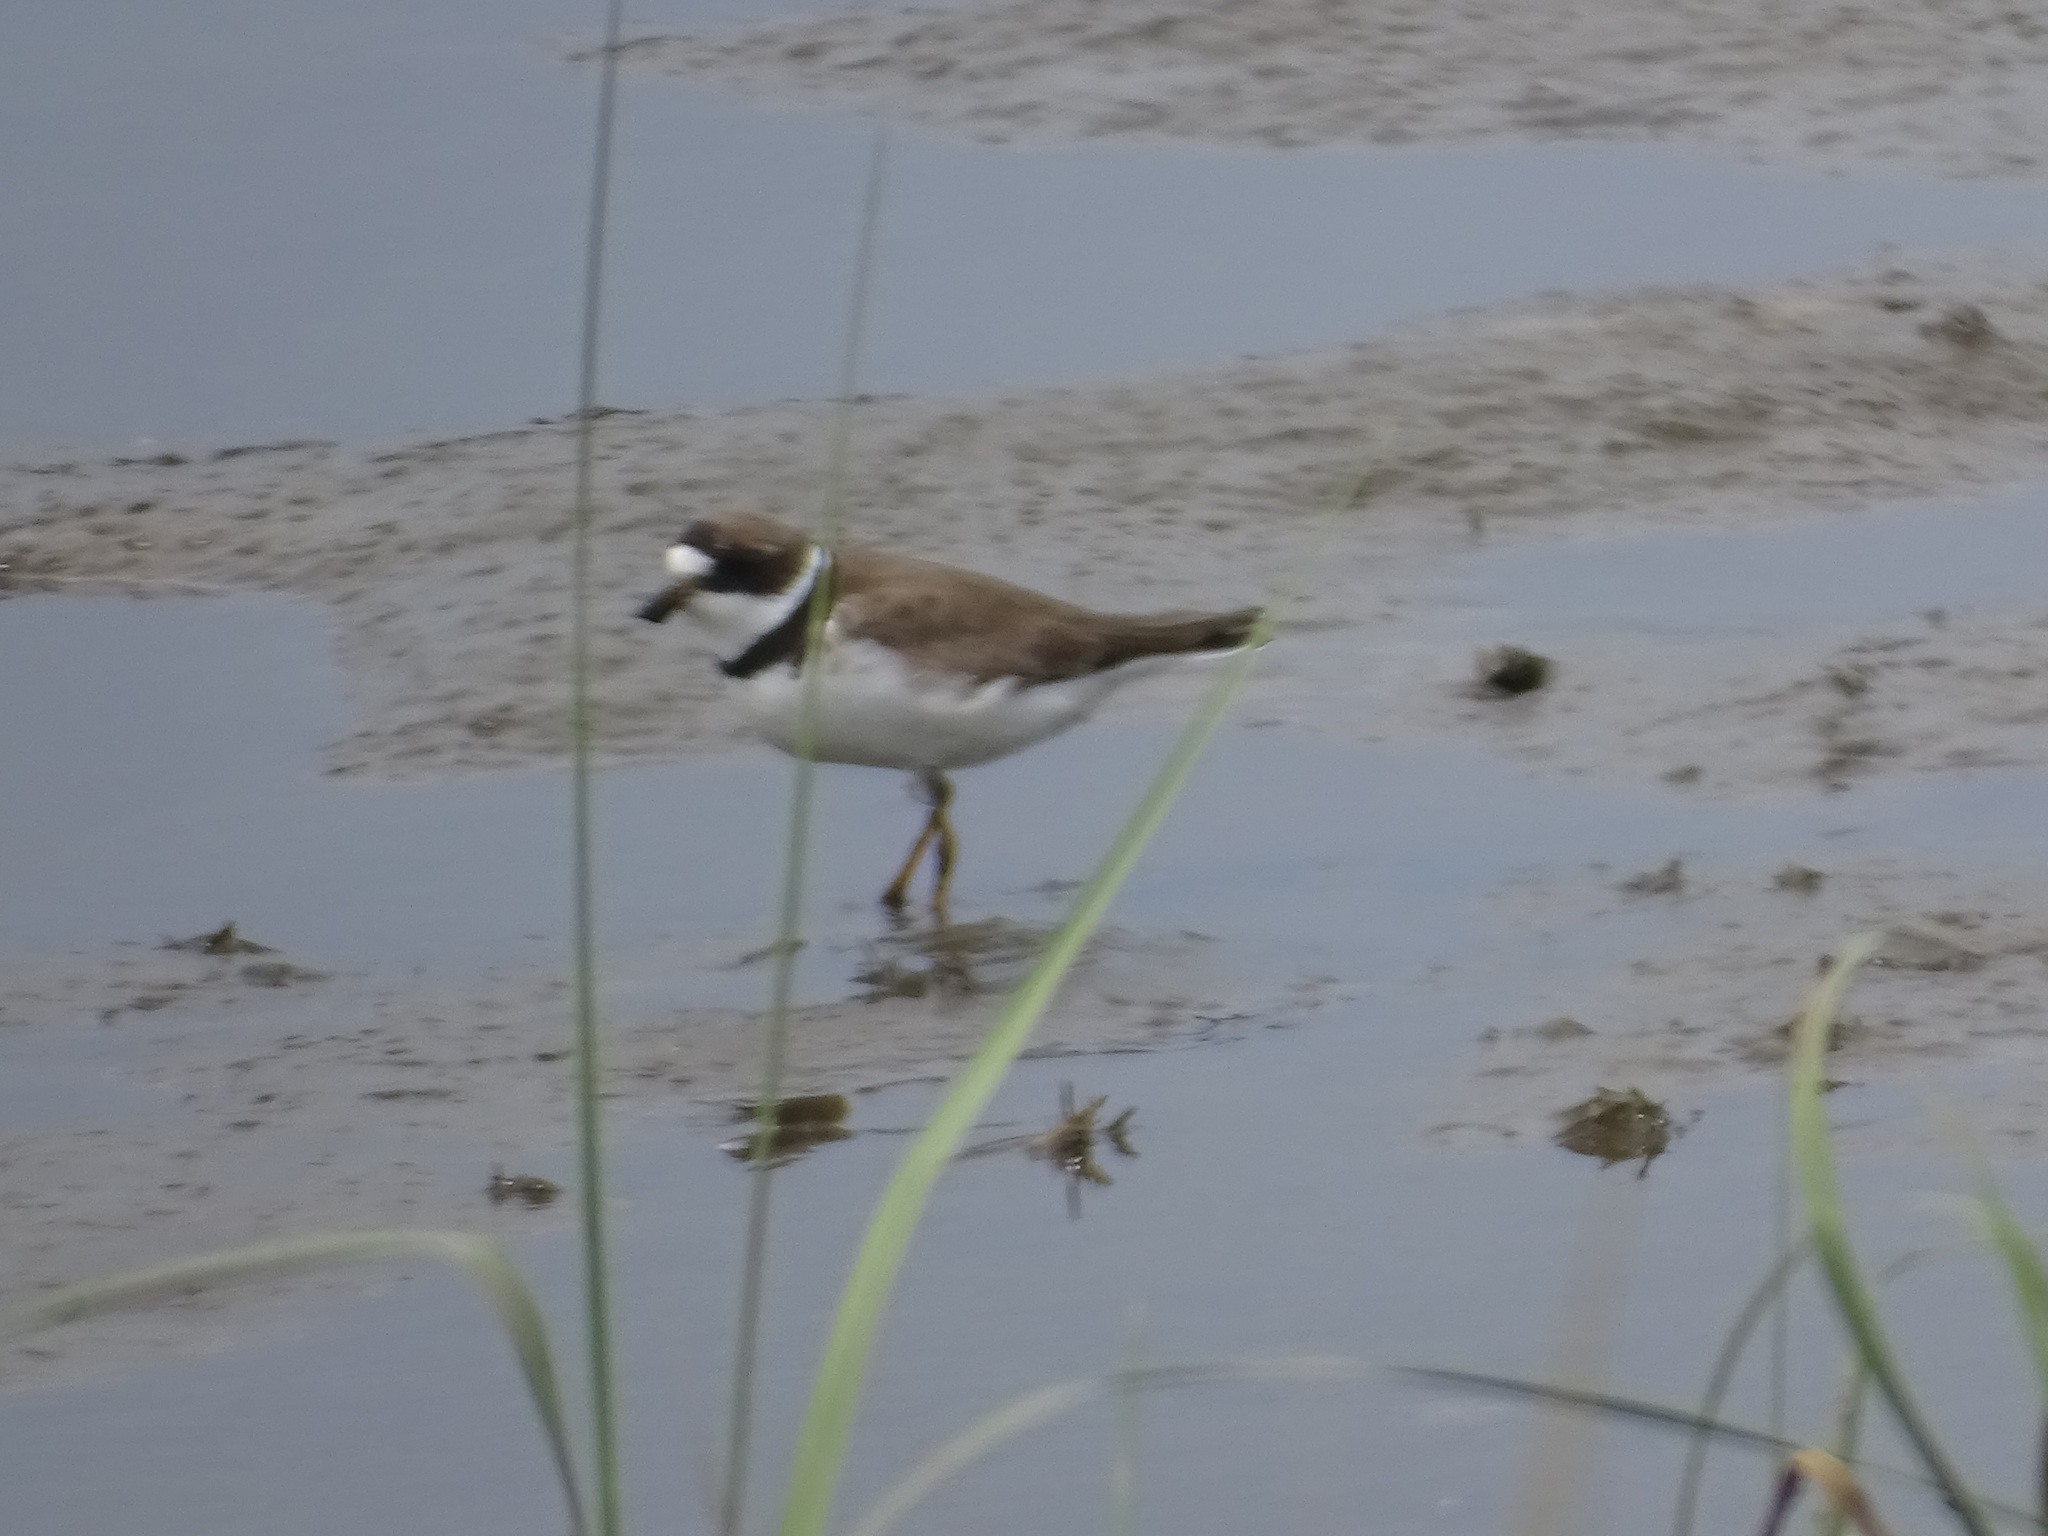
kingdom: Animalia
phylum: Chordata
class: Aves
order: Charadriiformes
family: Charadriidae
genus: Charadrius
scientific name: Charadrius semipalmatus
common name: Semipalmated plover
